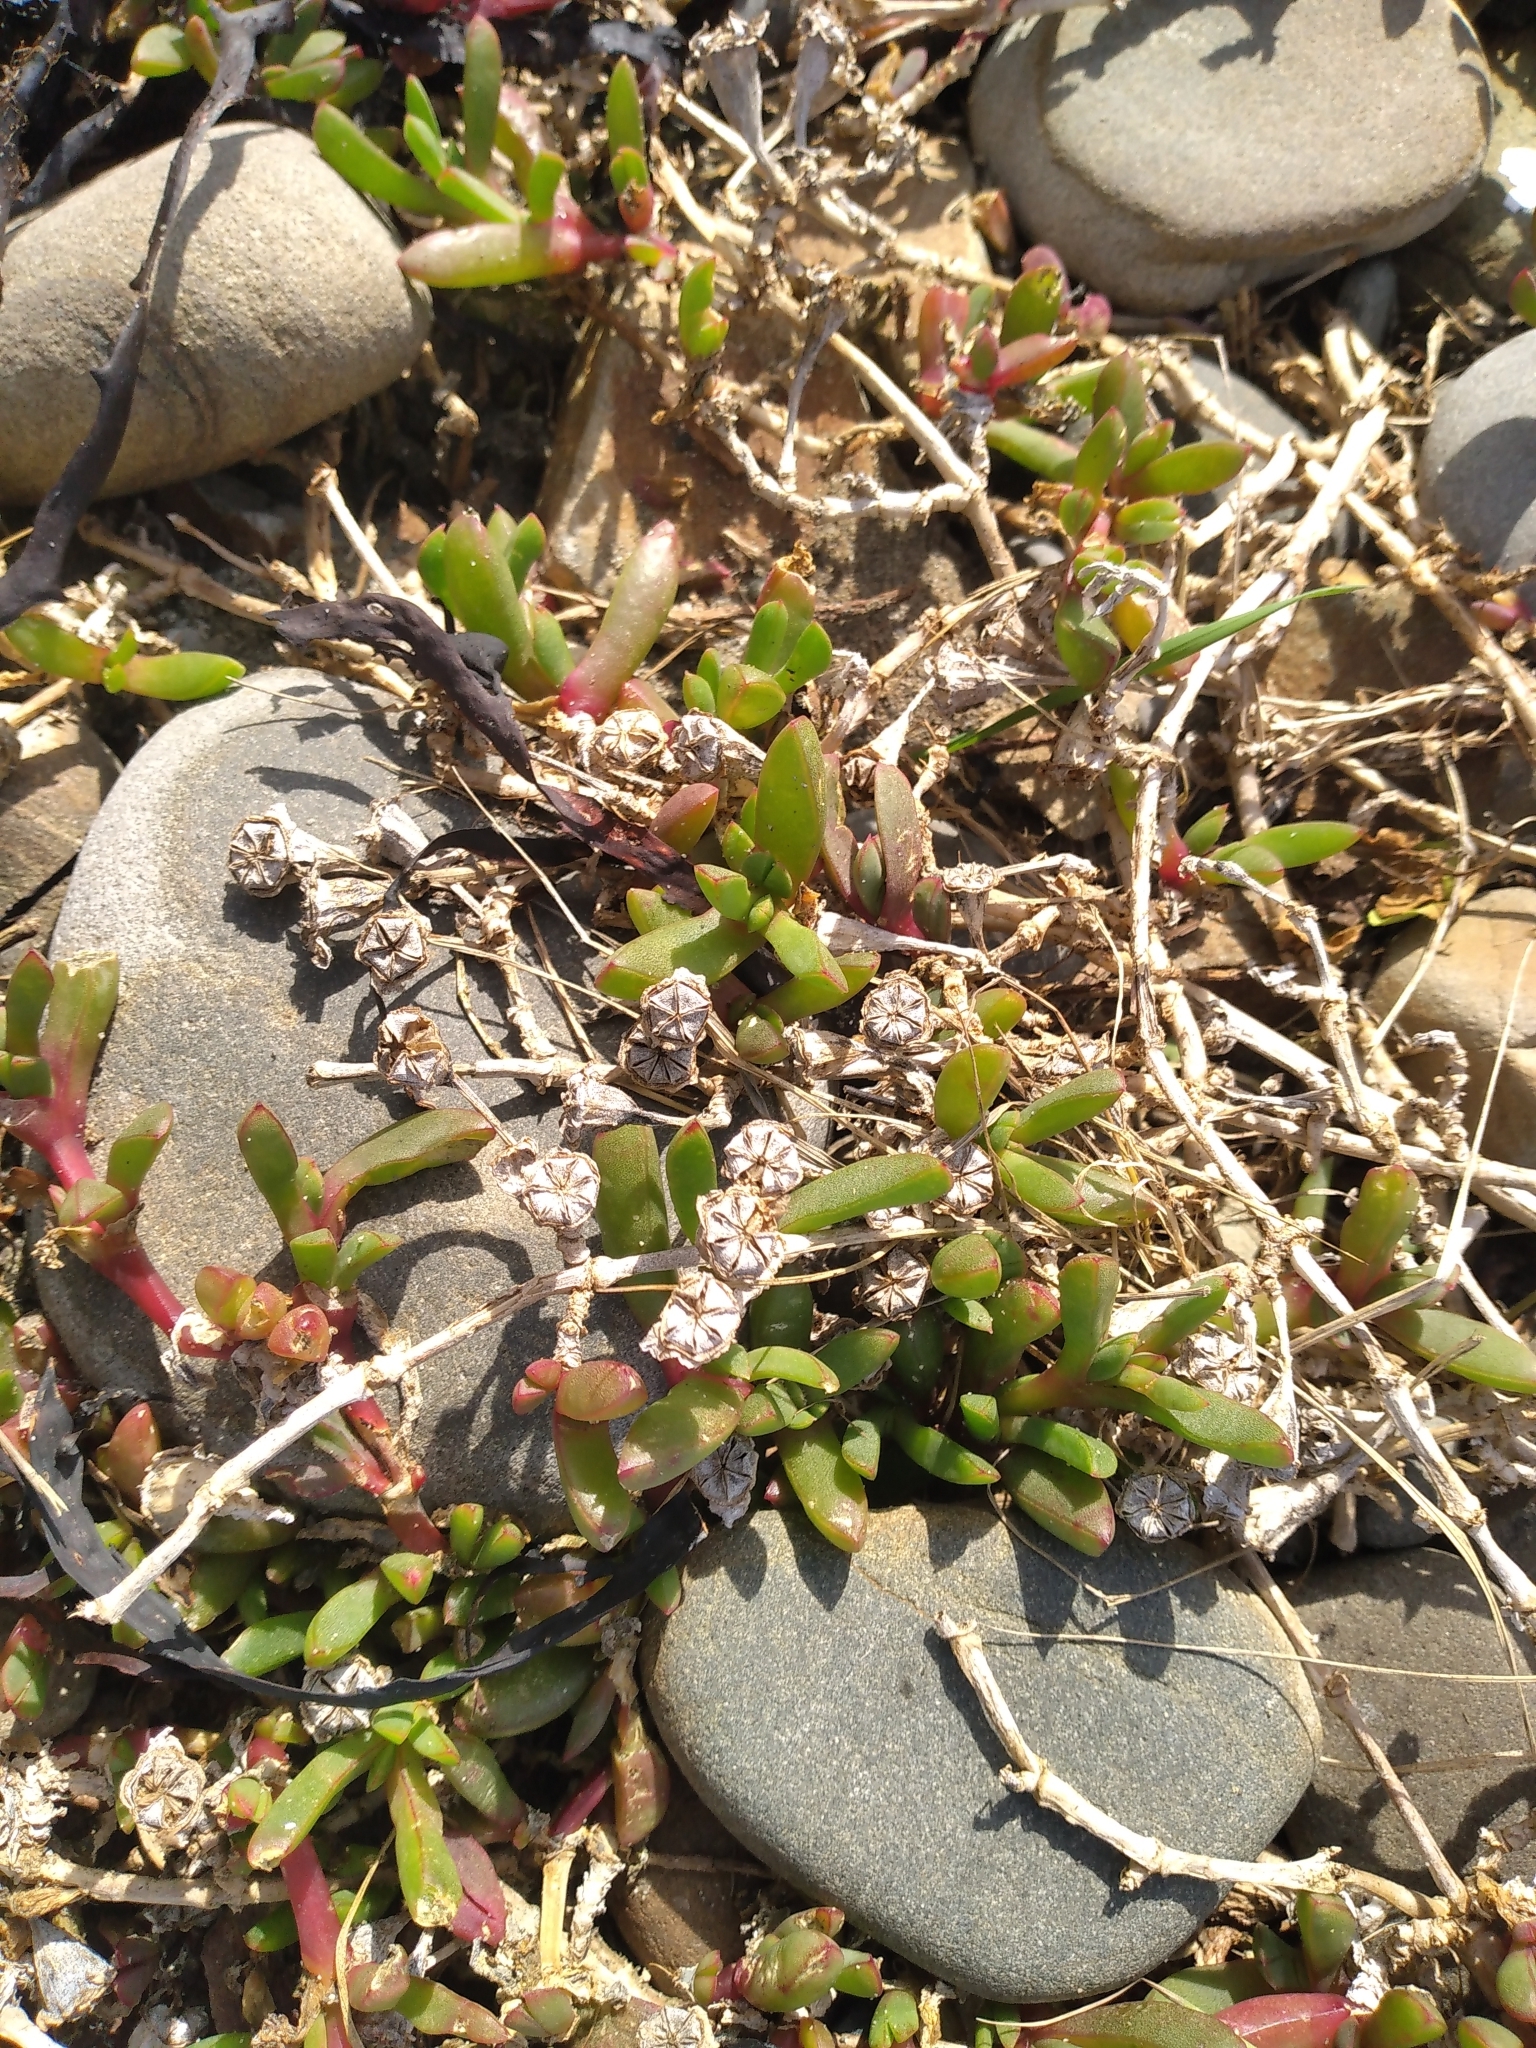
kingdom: Plantae
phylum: Tracheophyta
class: Magnoliopsida
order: Caryophyllales
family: Aizoaceae
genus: Disphyma
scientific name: Disphyma australe
